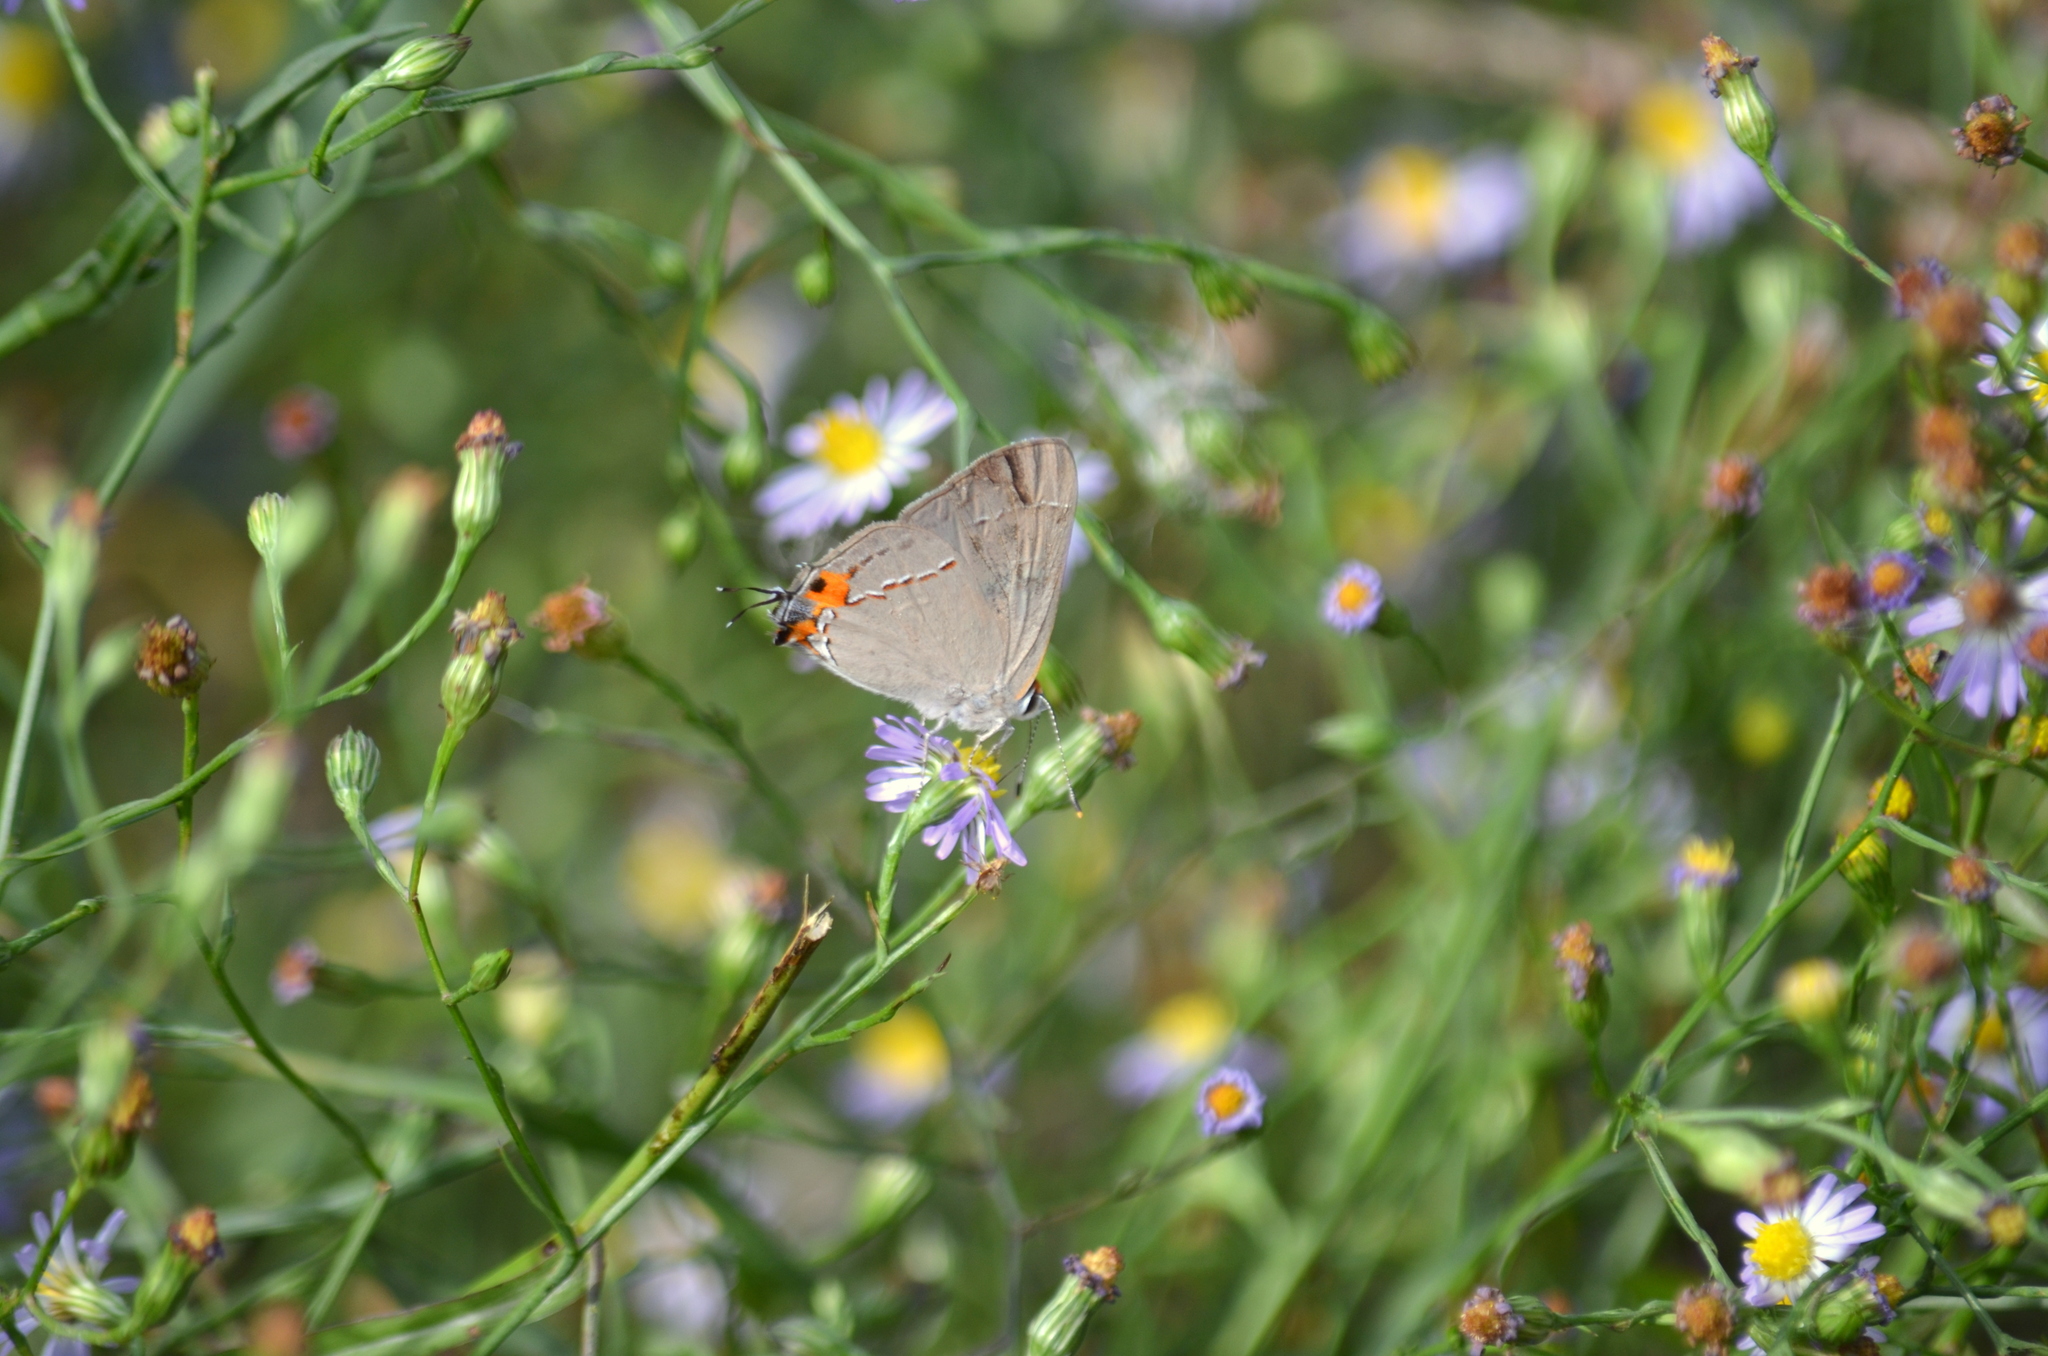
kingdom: Animalia
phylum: Arthropoda
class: Insecta
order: Lepidoptera
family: Lycaenidae
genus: Strymon
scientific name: Strymon melinus
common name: Gray hairstreak
